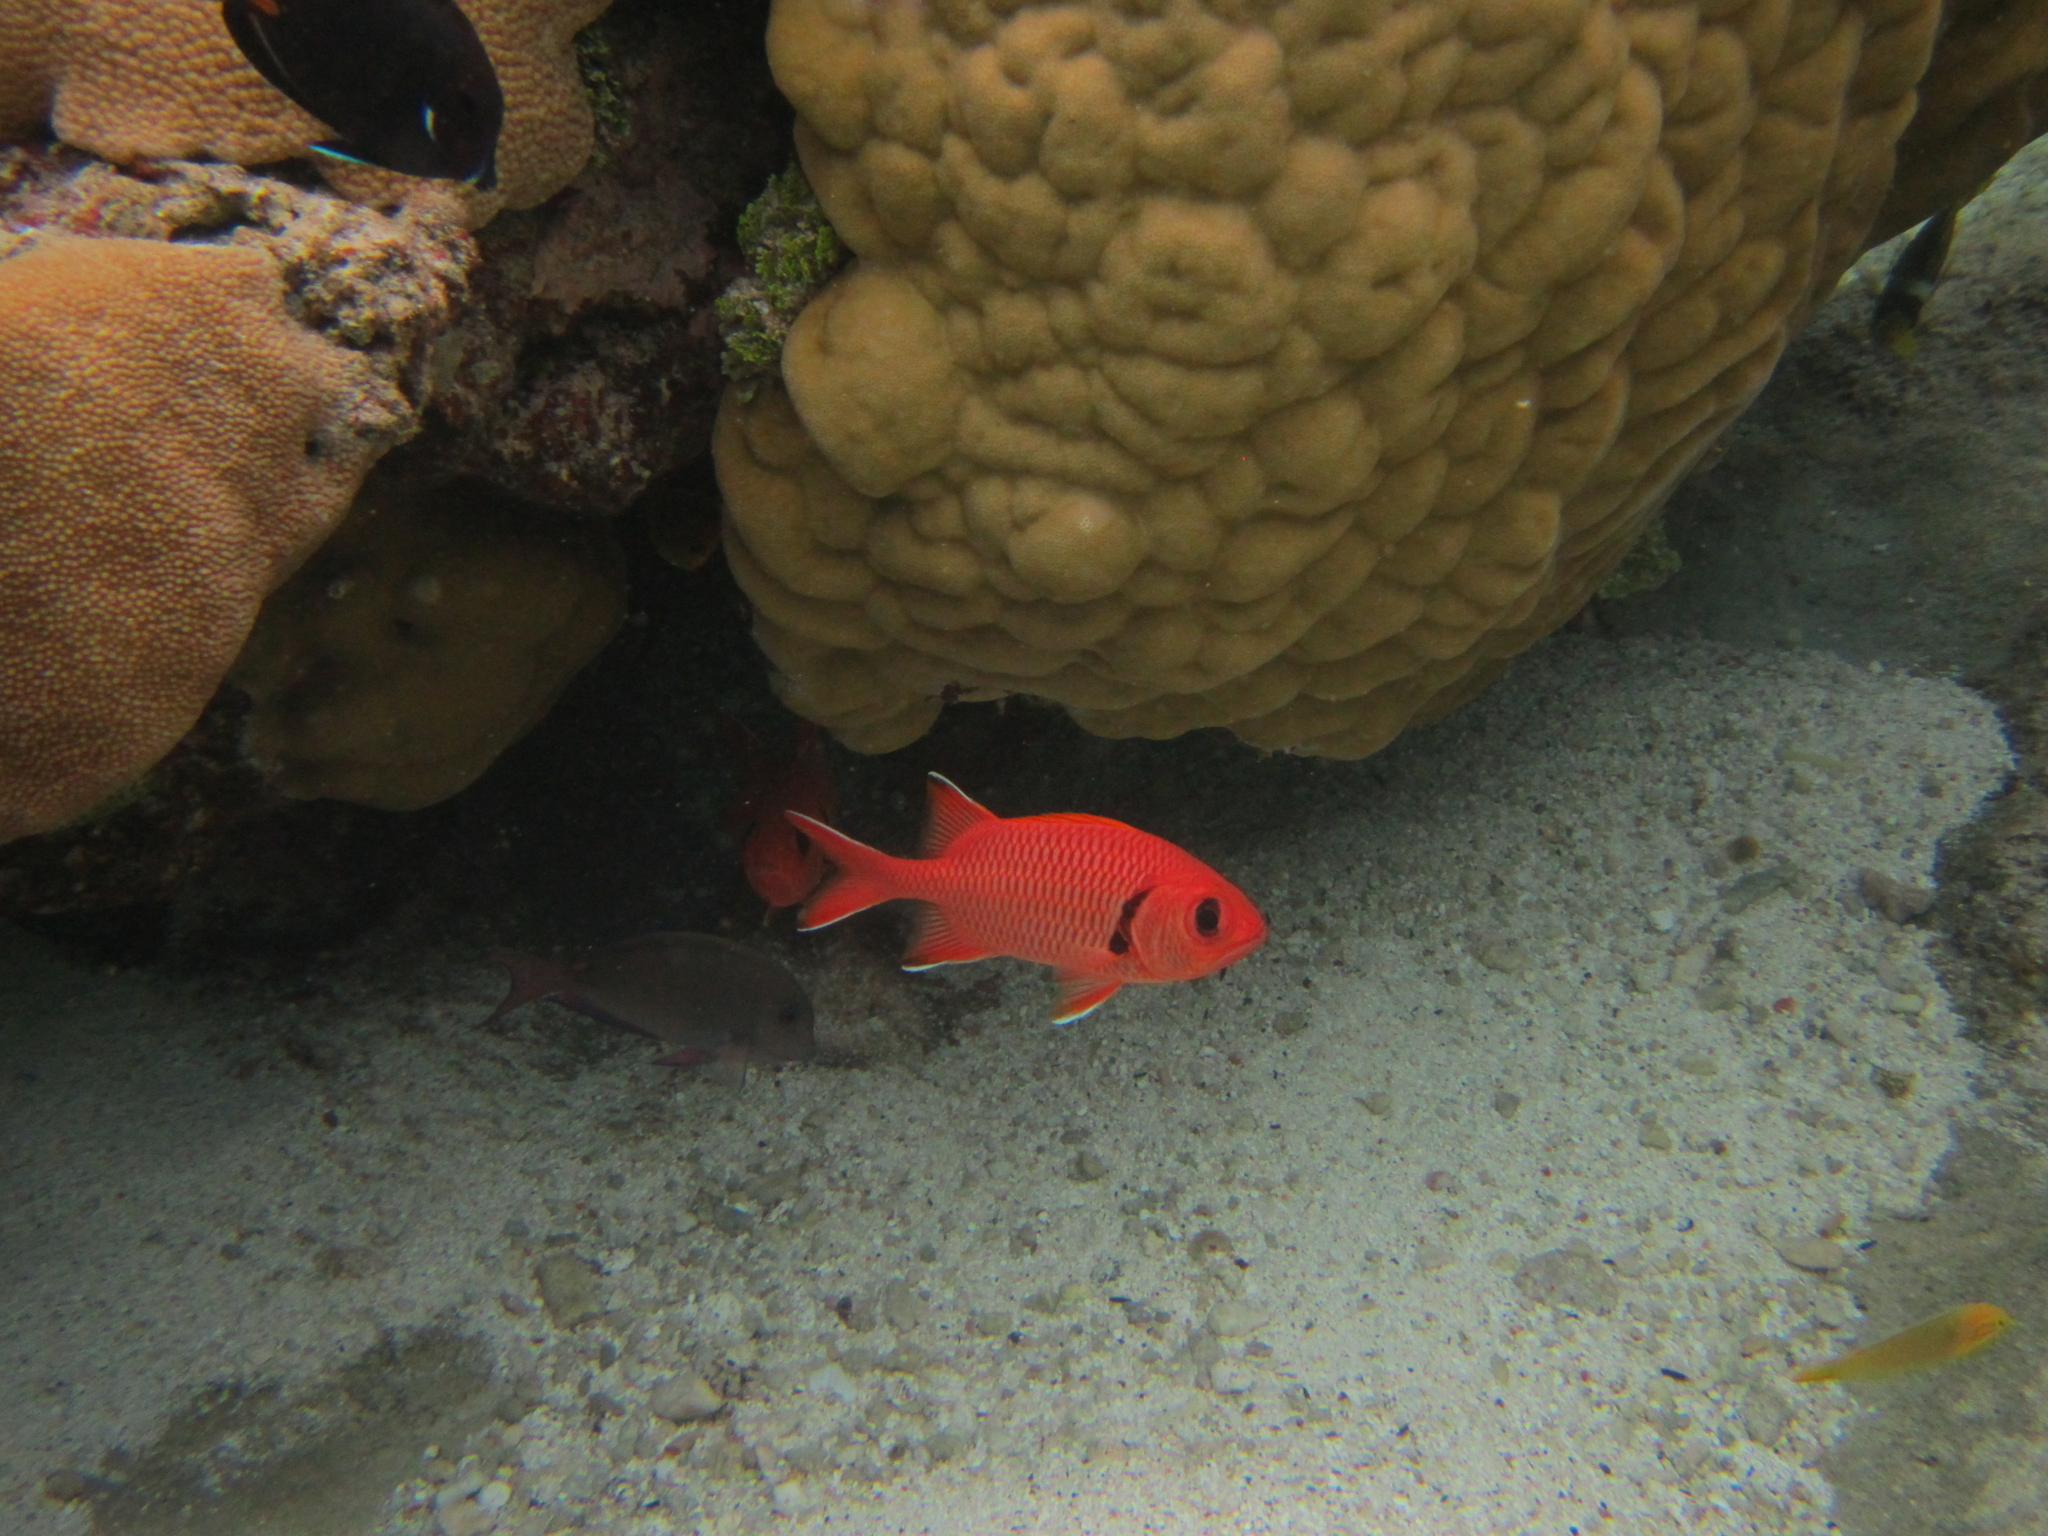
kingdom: Animalia
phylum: Chordata
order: Beryciformes
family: Holocentridae
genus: Myripristis
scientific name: Myripristis berndti
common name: Bigscale soldierfish
